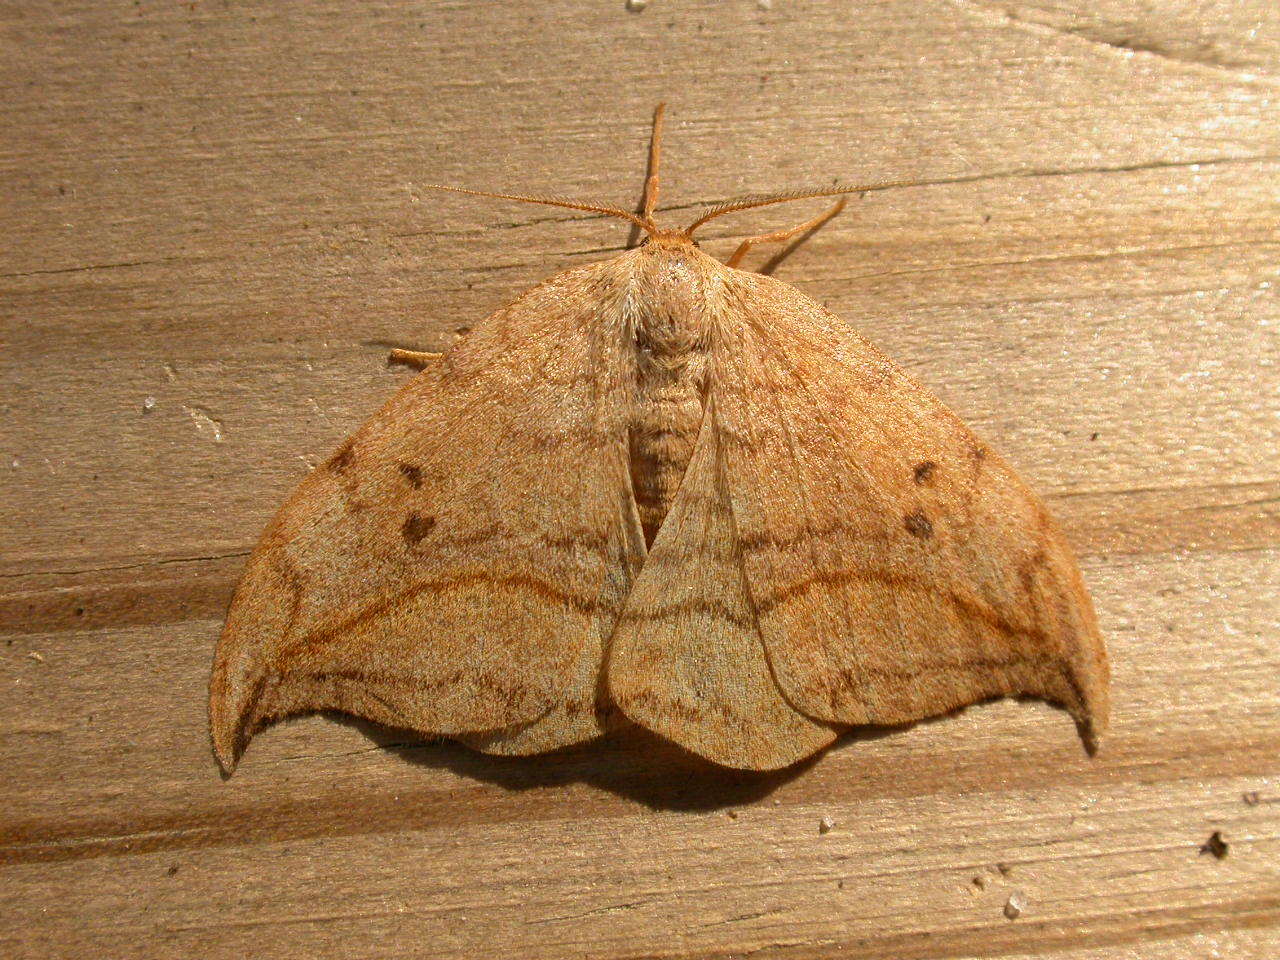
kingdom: Animalia
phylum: Arthropoda
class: Insecta
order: Lepidoptera
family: Drepanidae
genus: Drepana
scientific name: Drepana curvatula
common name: Dusky hook-tip
